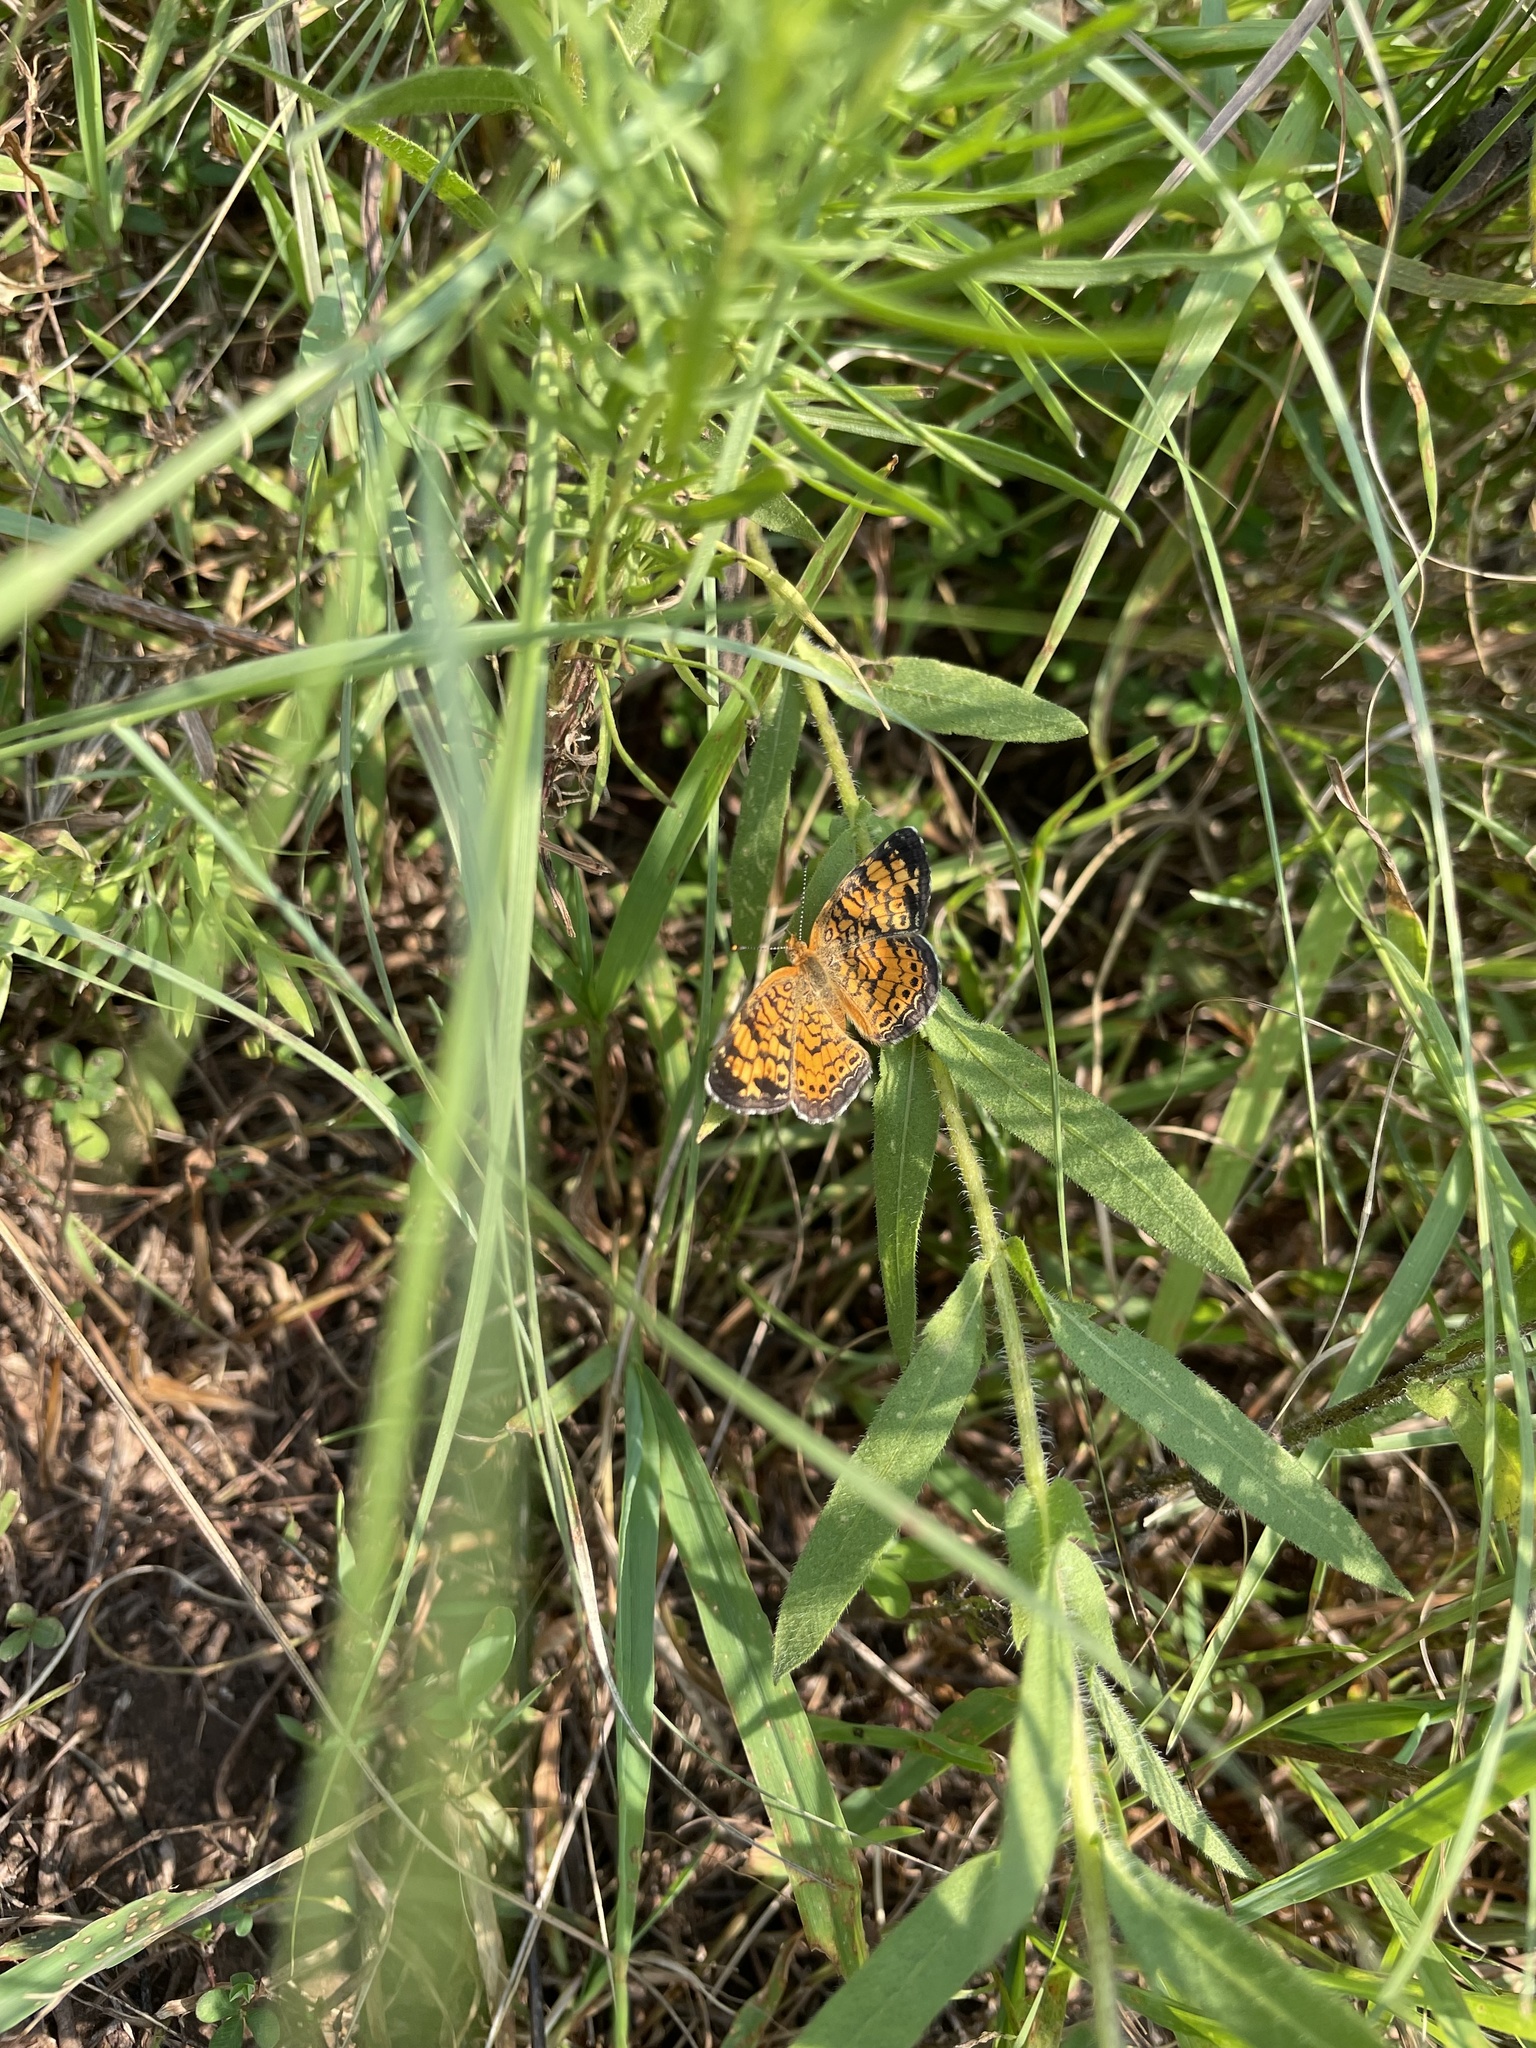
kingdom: Animalia
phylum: Arthropoda
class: Insecta
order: Lepidoptera
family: Nymphalidae
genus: Phyciodes
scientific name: Phyciodes tharos
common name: Pearl crescent
